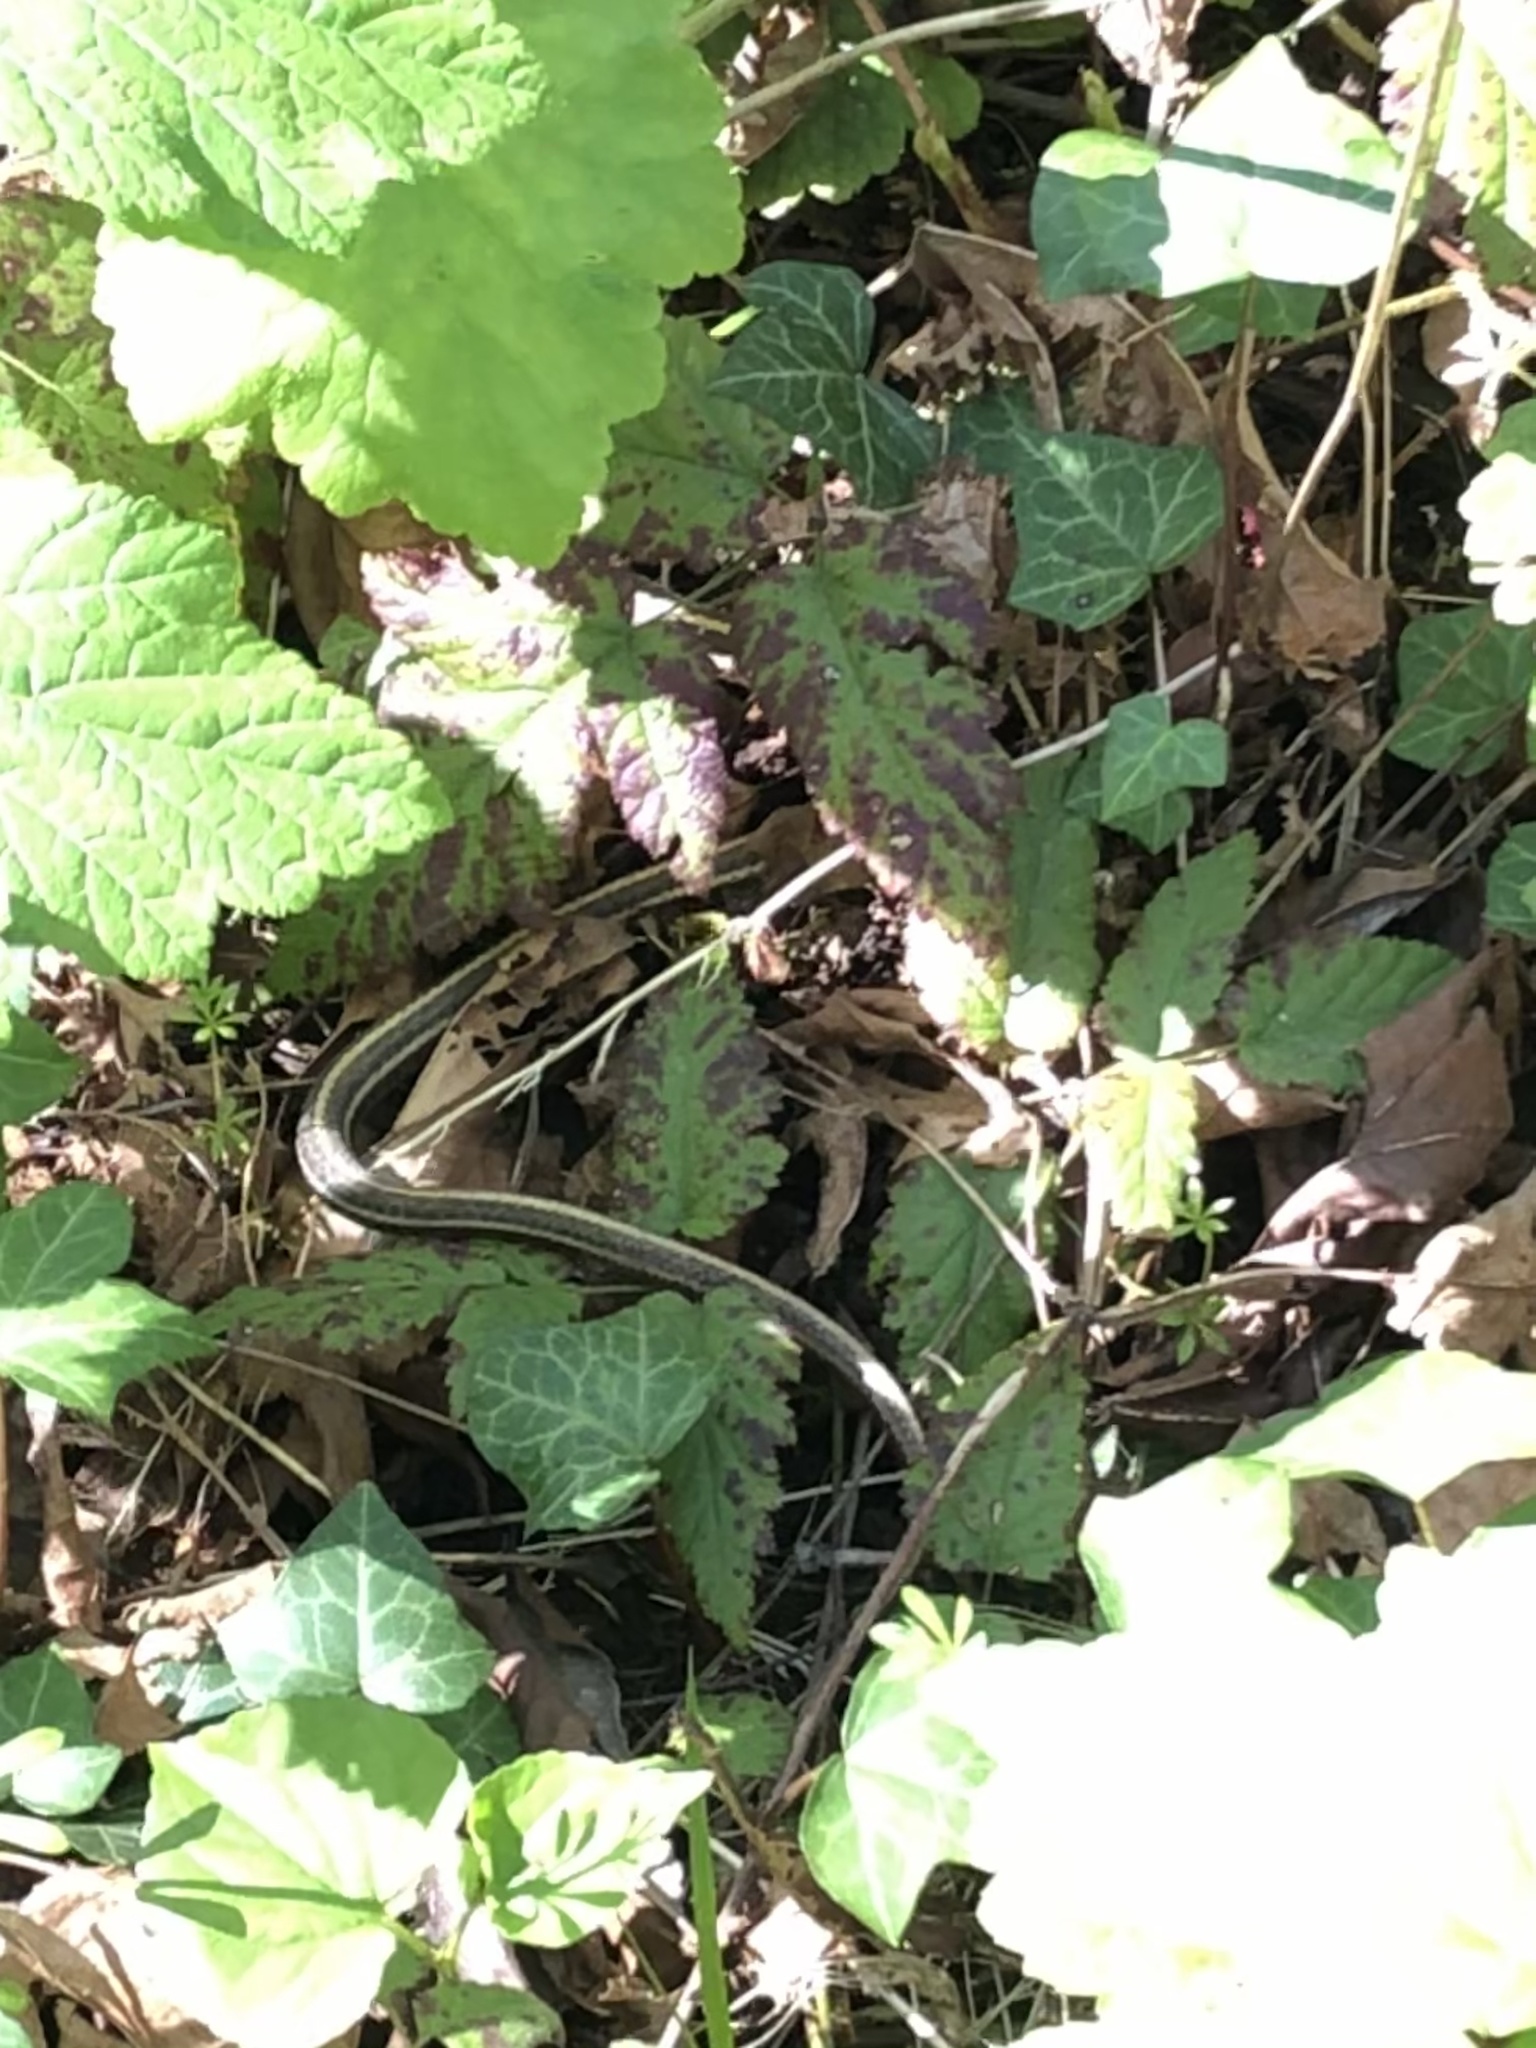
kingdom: Animalia
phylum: Chordata
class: Squamata
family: Colubridae
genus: Thamnophis
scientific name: Thamnophis ordinoides
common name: Northwestern garter snake
